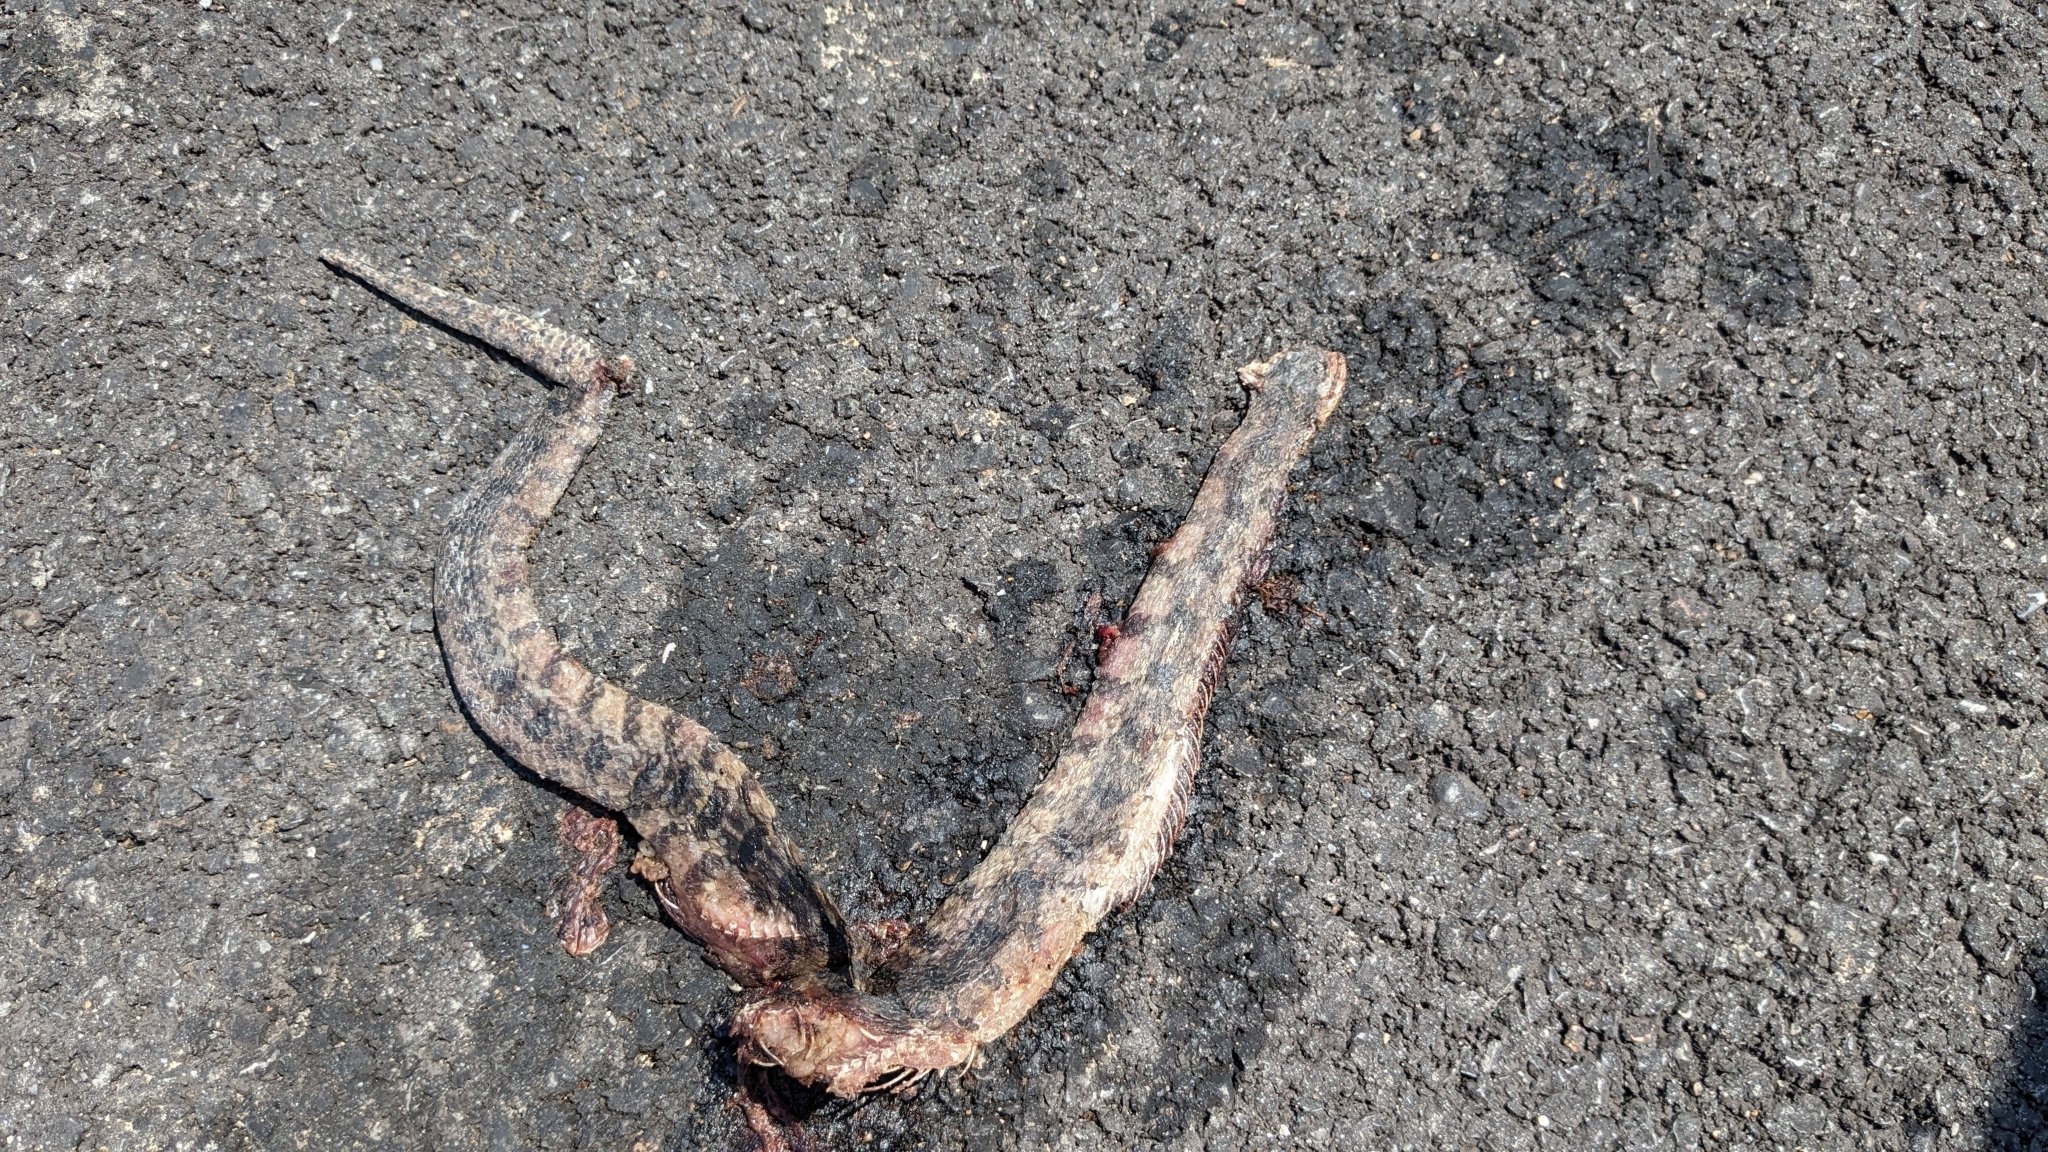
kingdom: Animalia
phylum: Chordata
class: Squamata
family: Colubridae
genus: Nerodia
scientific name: Nerodia rhombifer
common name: Diamondback water snake
